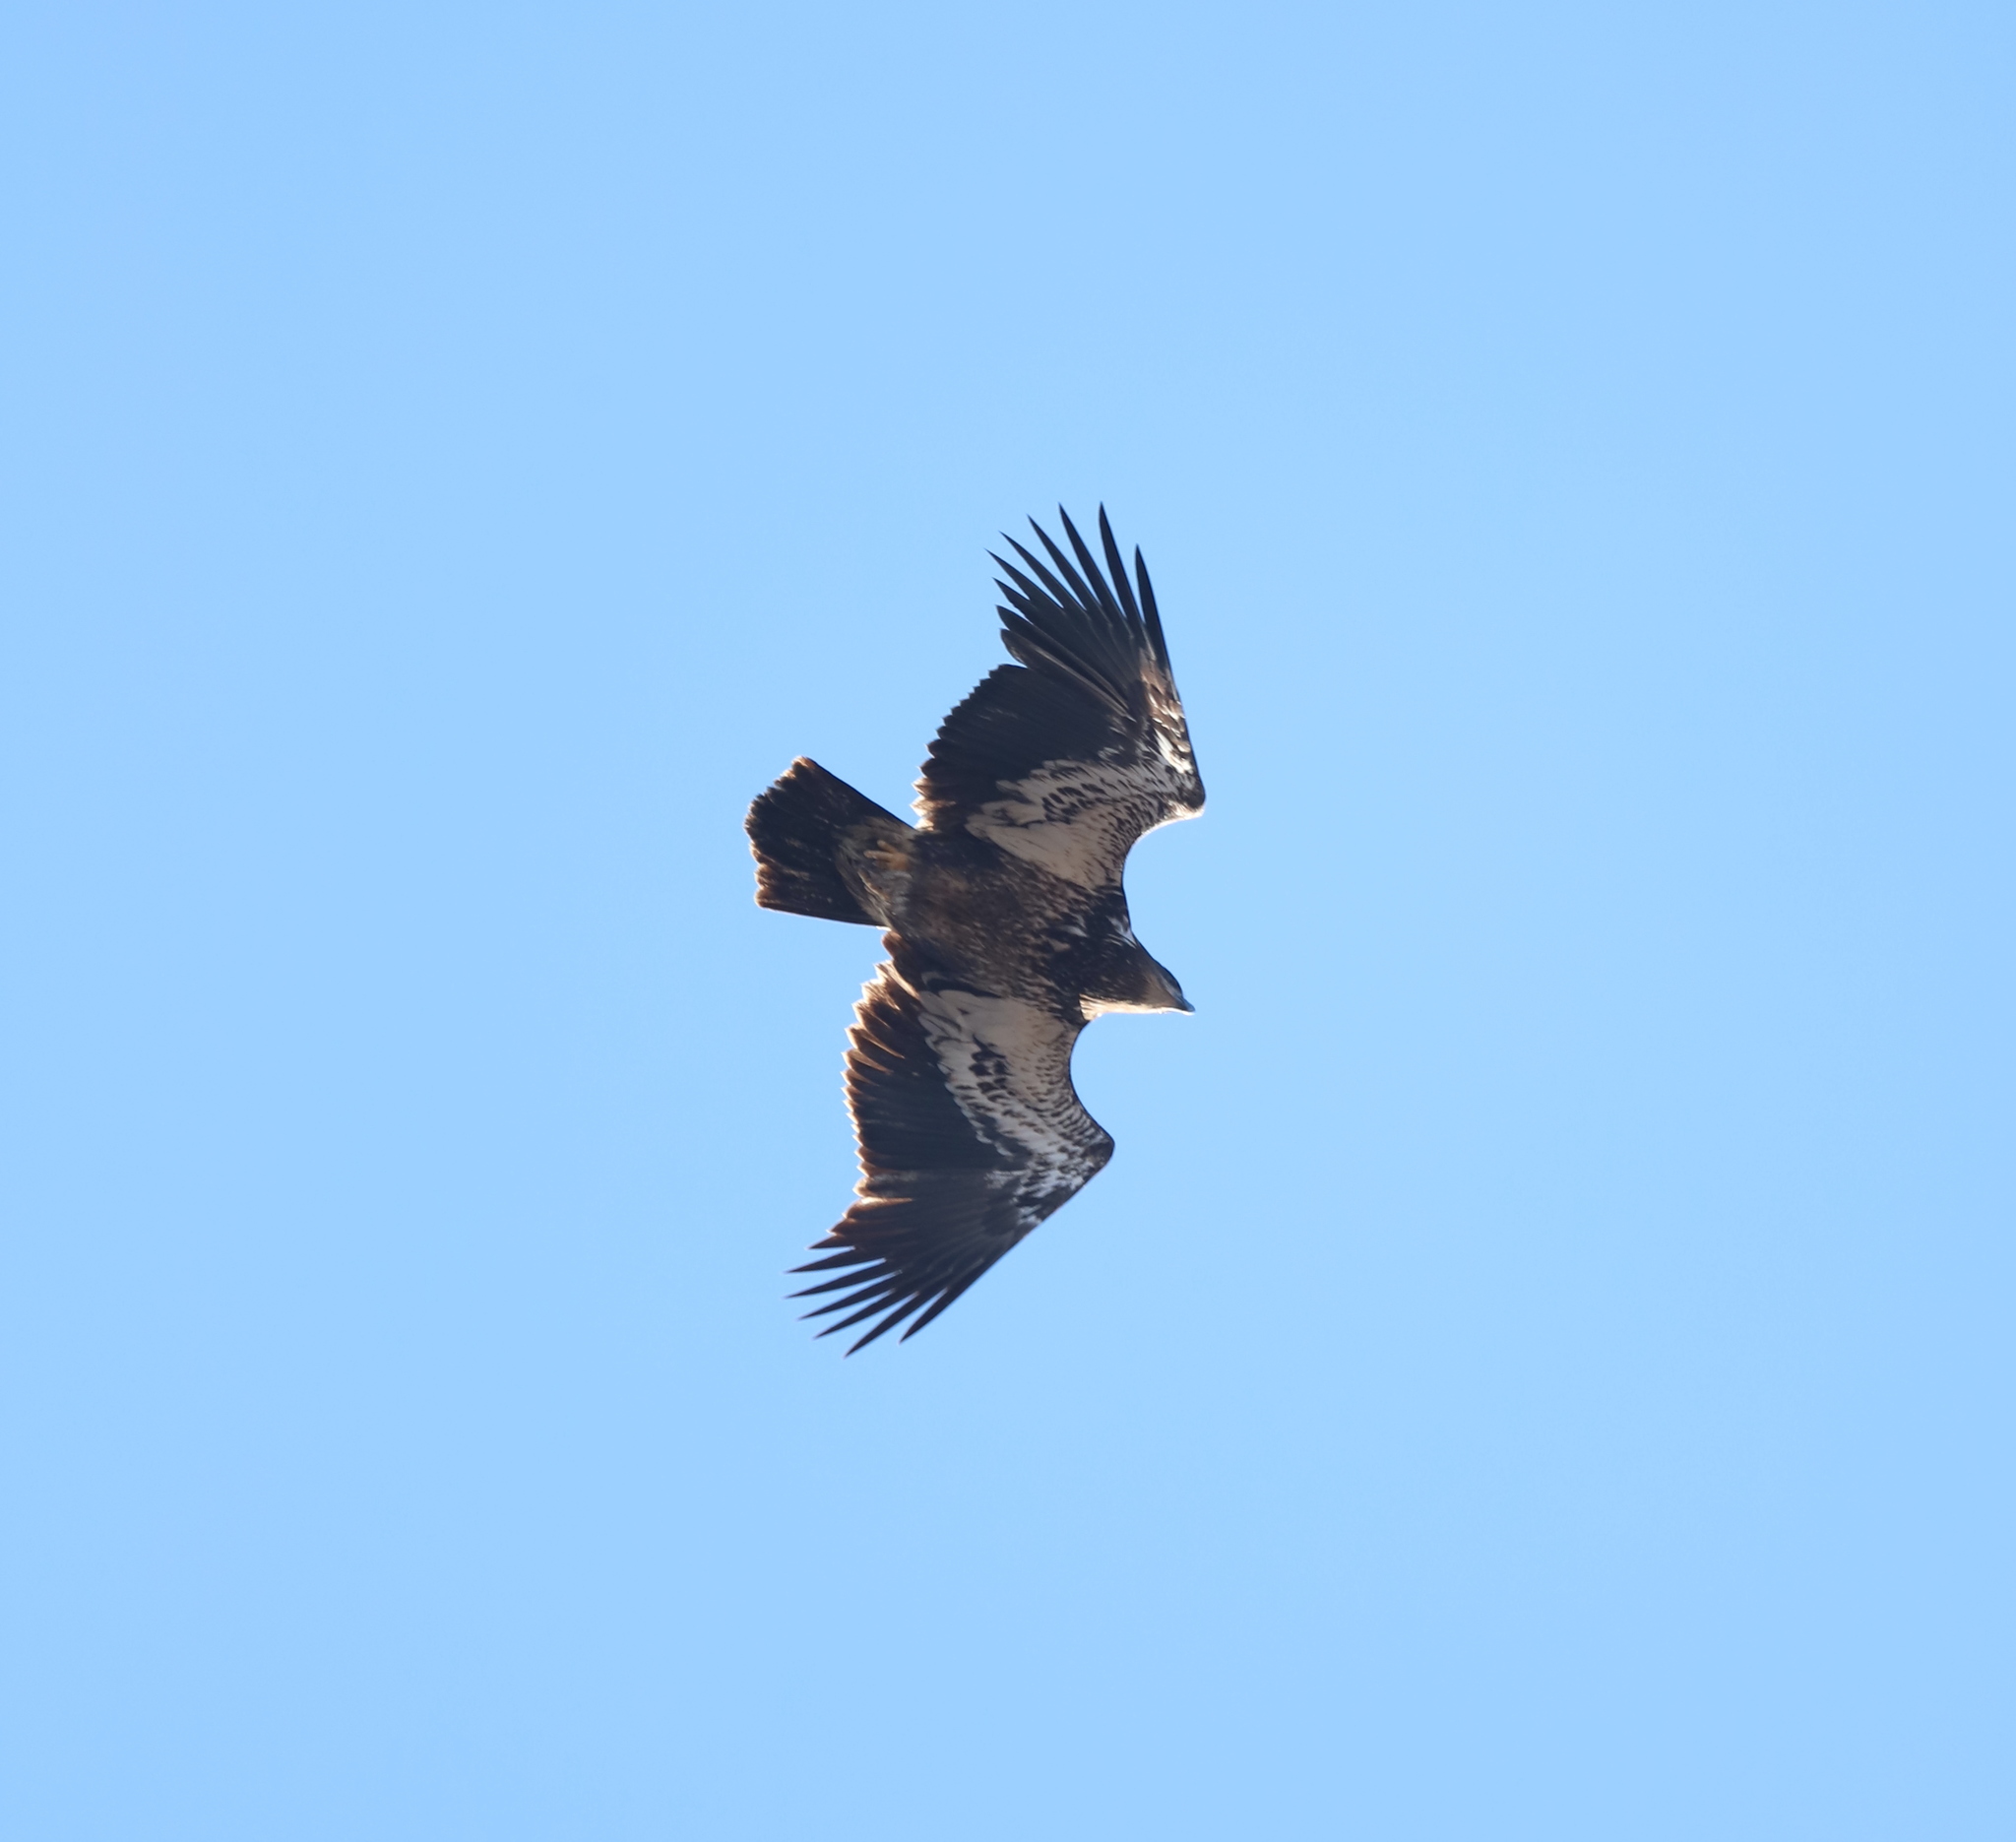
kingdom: Animalia
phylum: Chordata
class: Aves
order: Accipitriformes
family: Accipitridae
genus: Haliaeetus
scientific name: Haliaeetus leucocephalus
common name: Bald eagle
